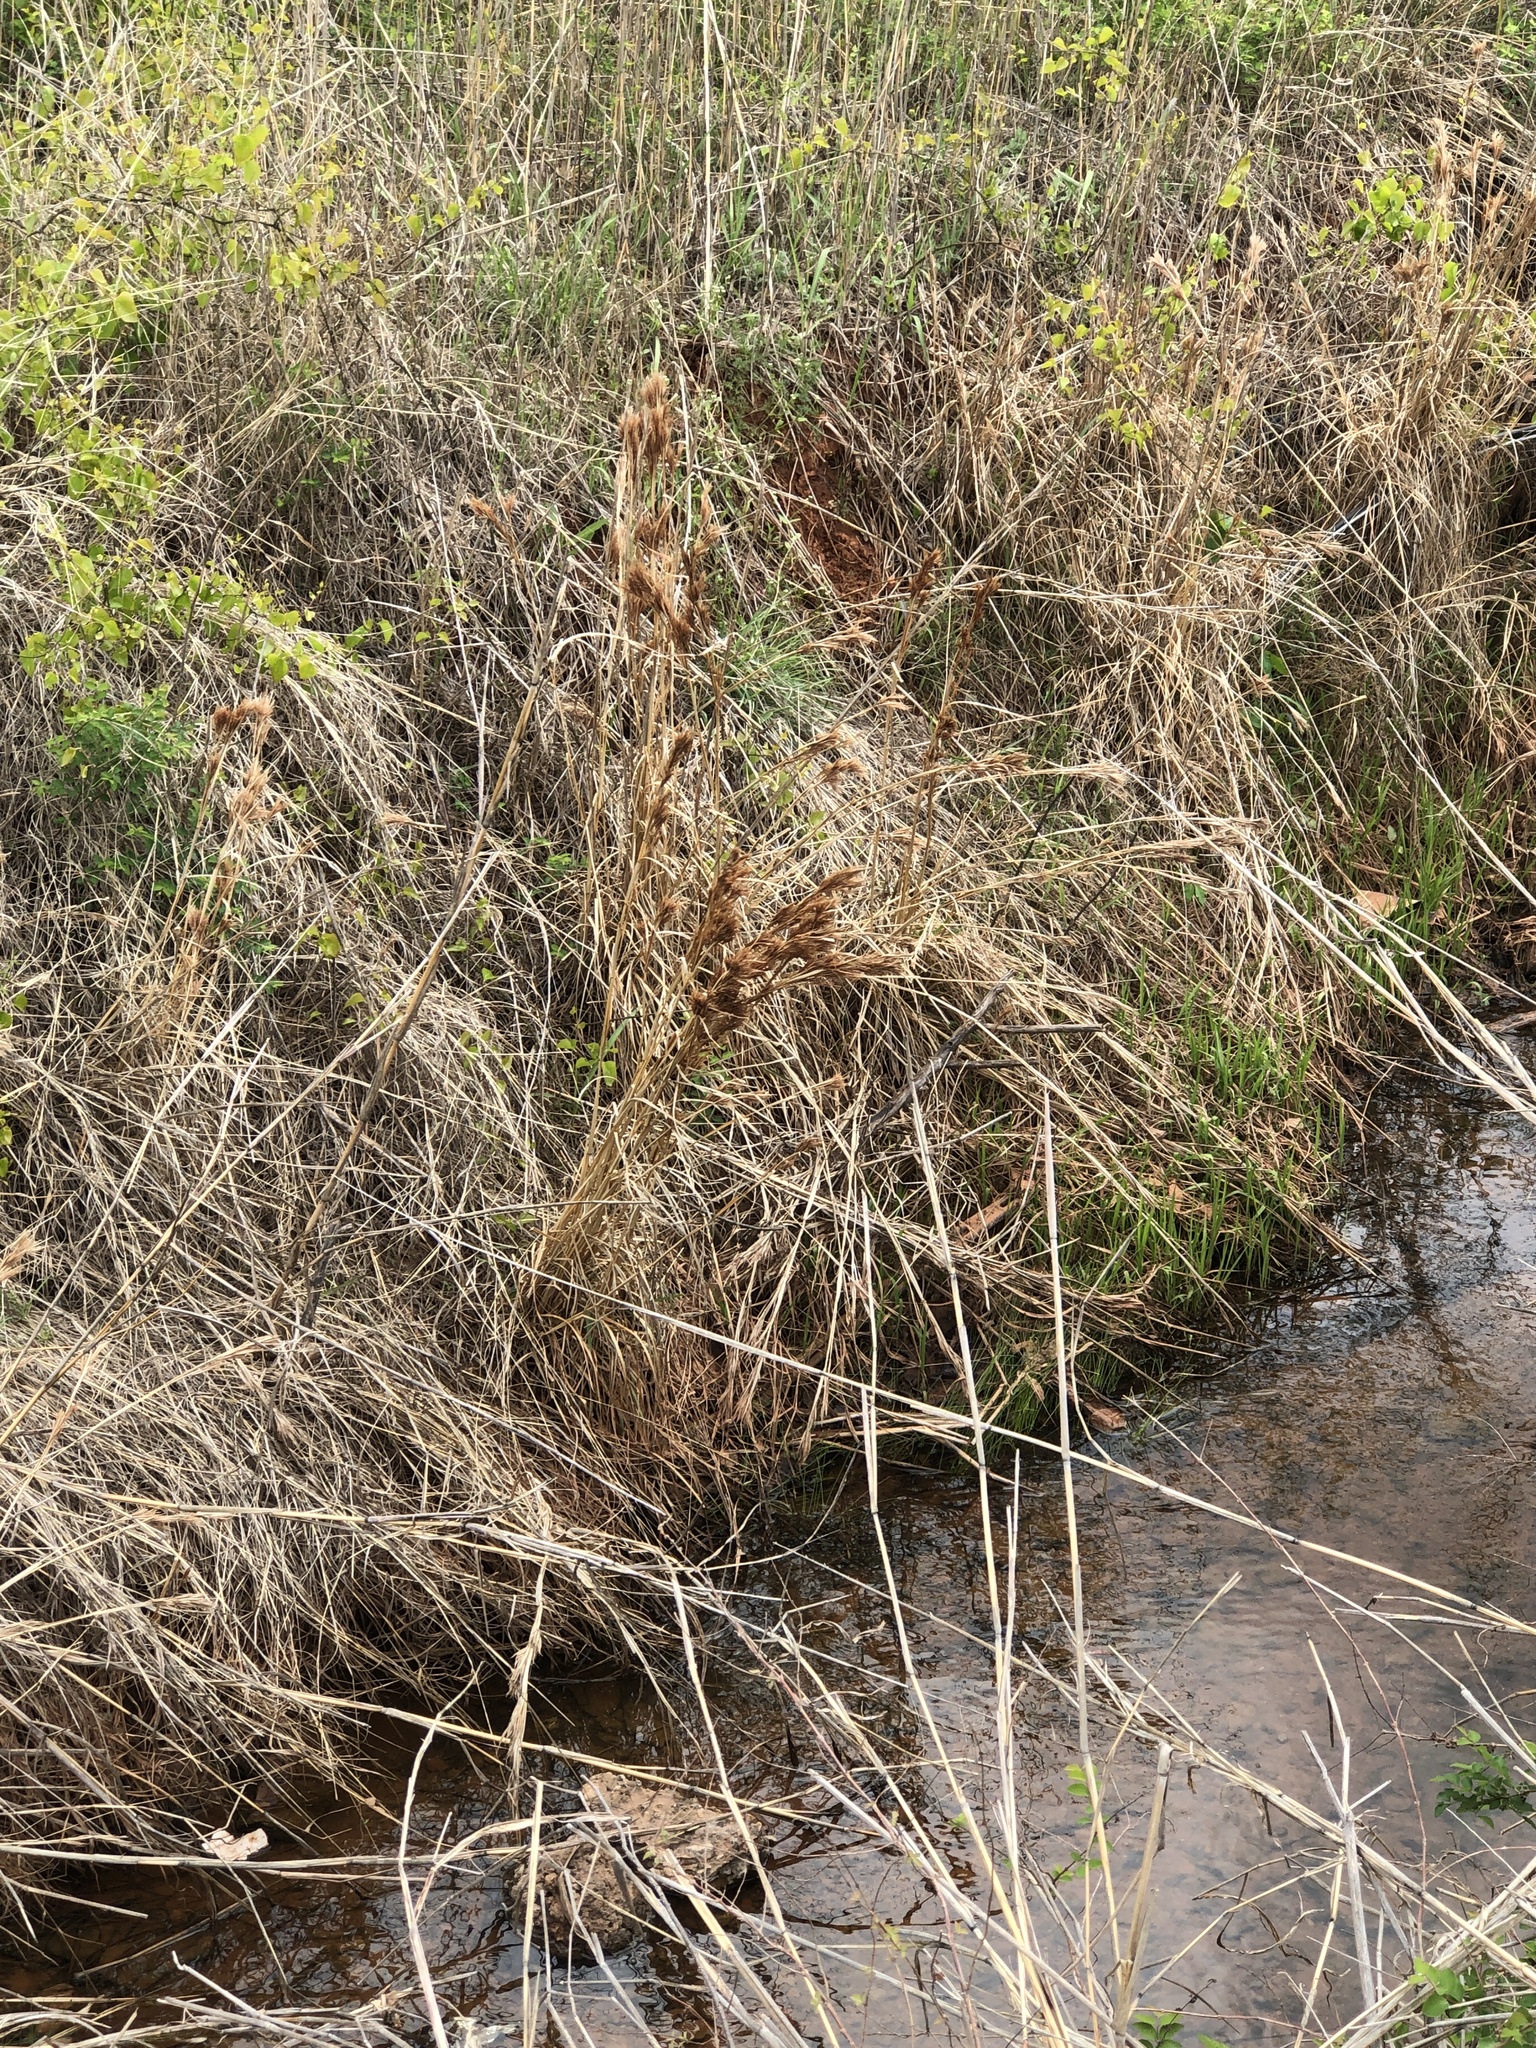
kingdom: Plantae
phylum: Tracheophyta
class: Liliopsida
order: Poales
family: Poaceae
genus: Andropogon
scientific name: Andropogon tenuispatheus
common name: Bushy bluestem
